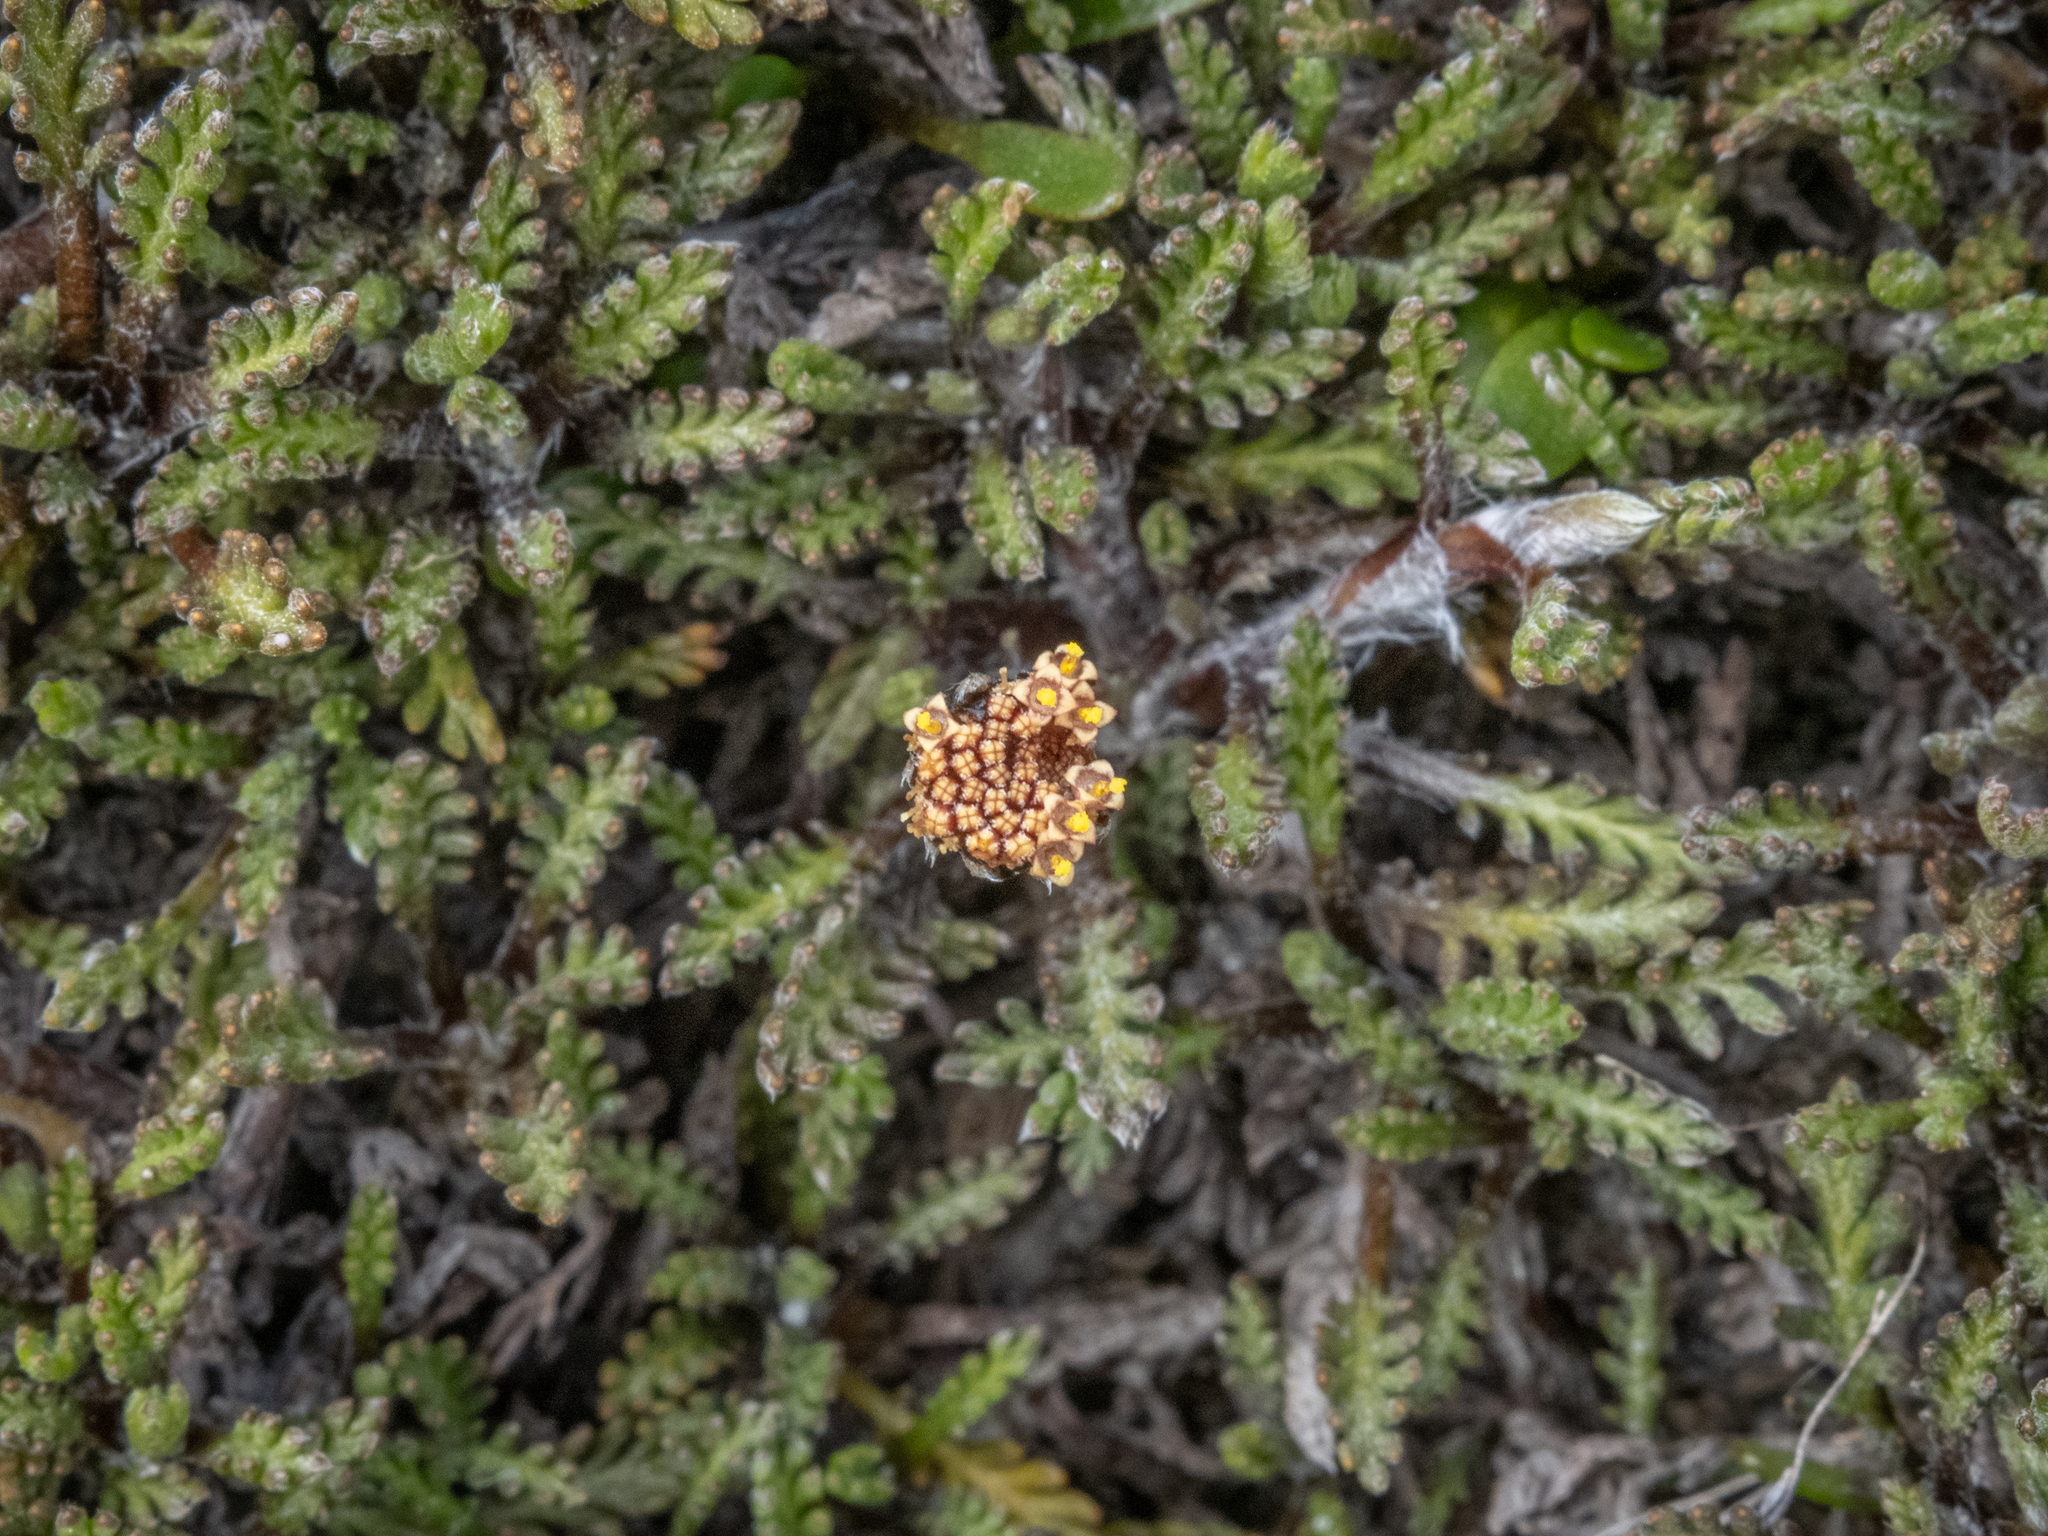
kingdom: Plantae
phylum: Tracheophyta
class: Magnoliopsida
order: Asterales
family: Asteraceae
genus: Leptinella
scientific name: Leptinella pectinata
